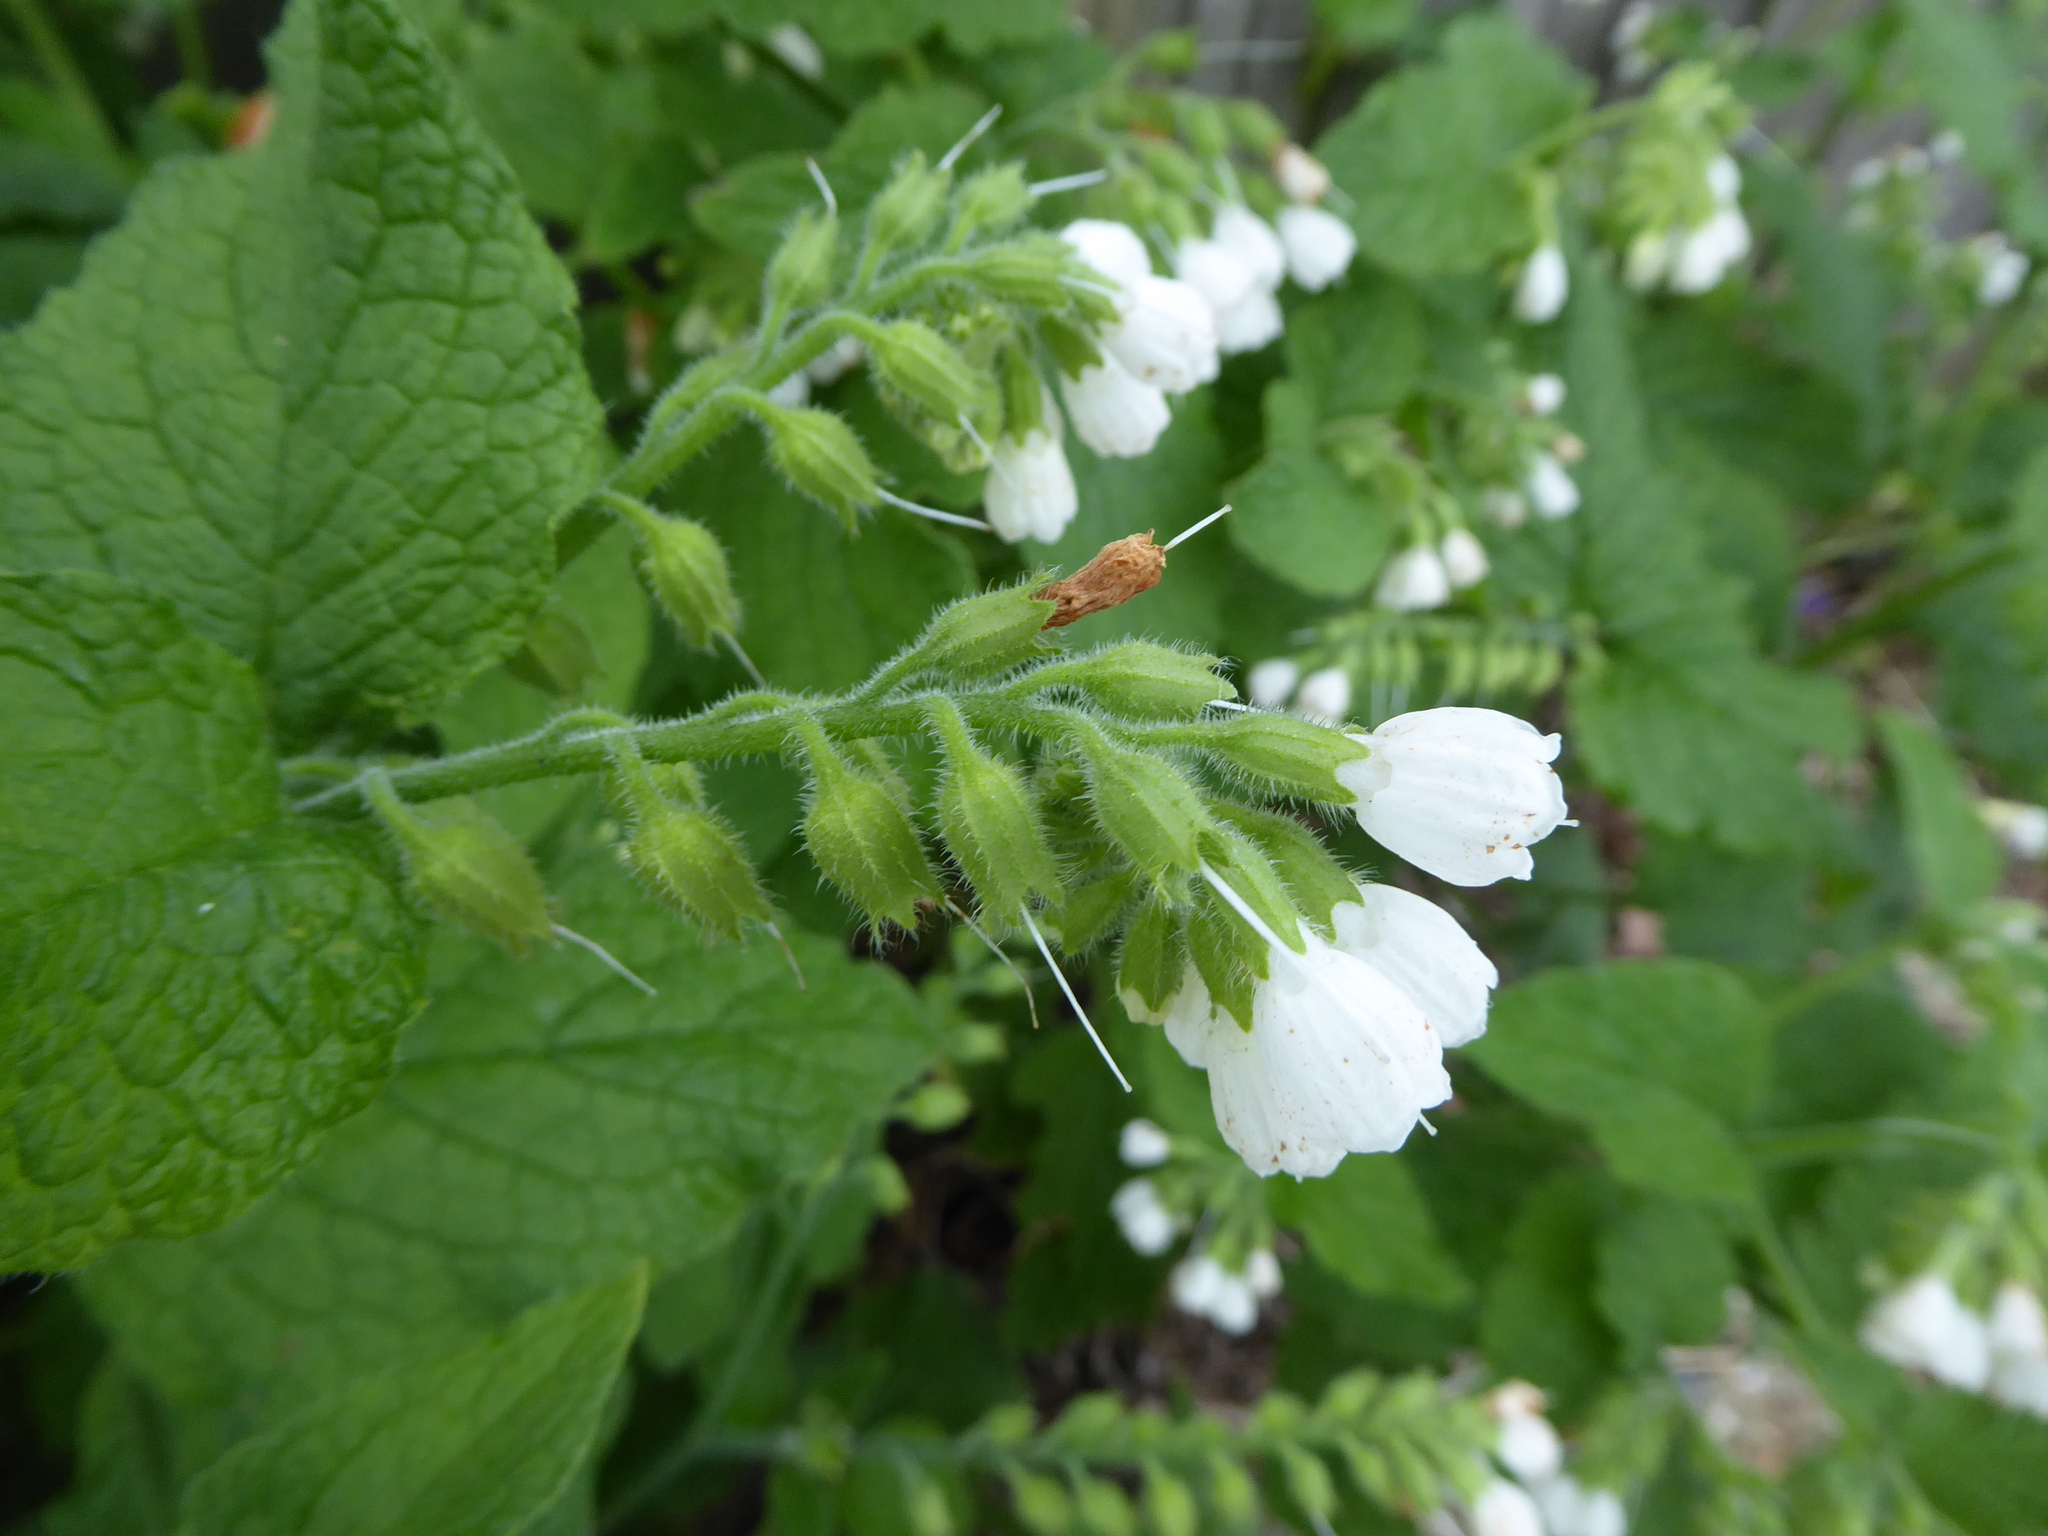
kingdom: Plantae
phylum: Tracheophyta
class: Magnoliopsida
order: Boraginales
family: Boraginaceae
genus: Symphytum
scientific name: Symphytum orientale
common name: White comfrey
